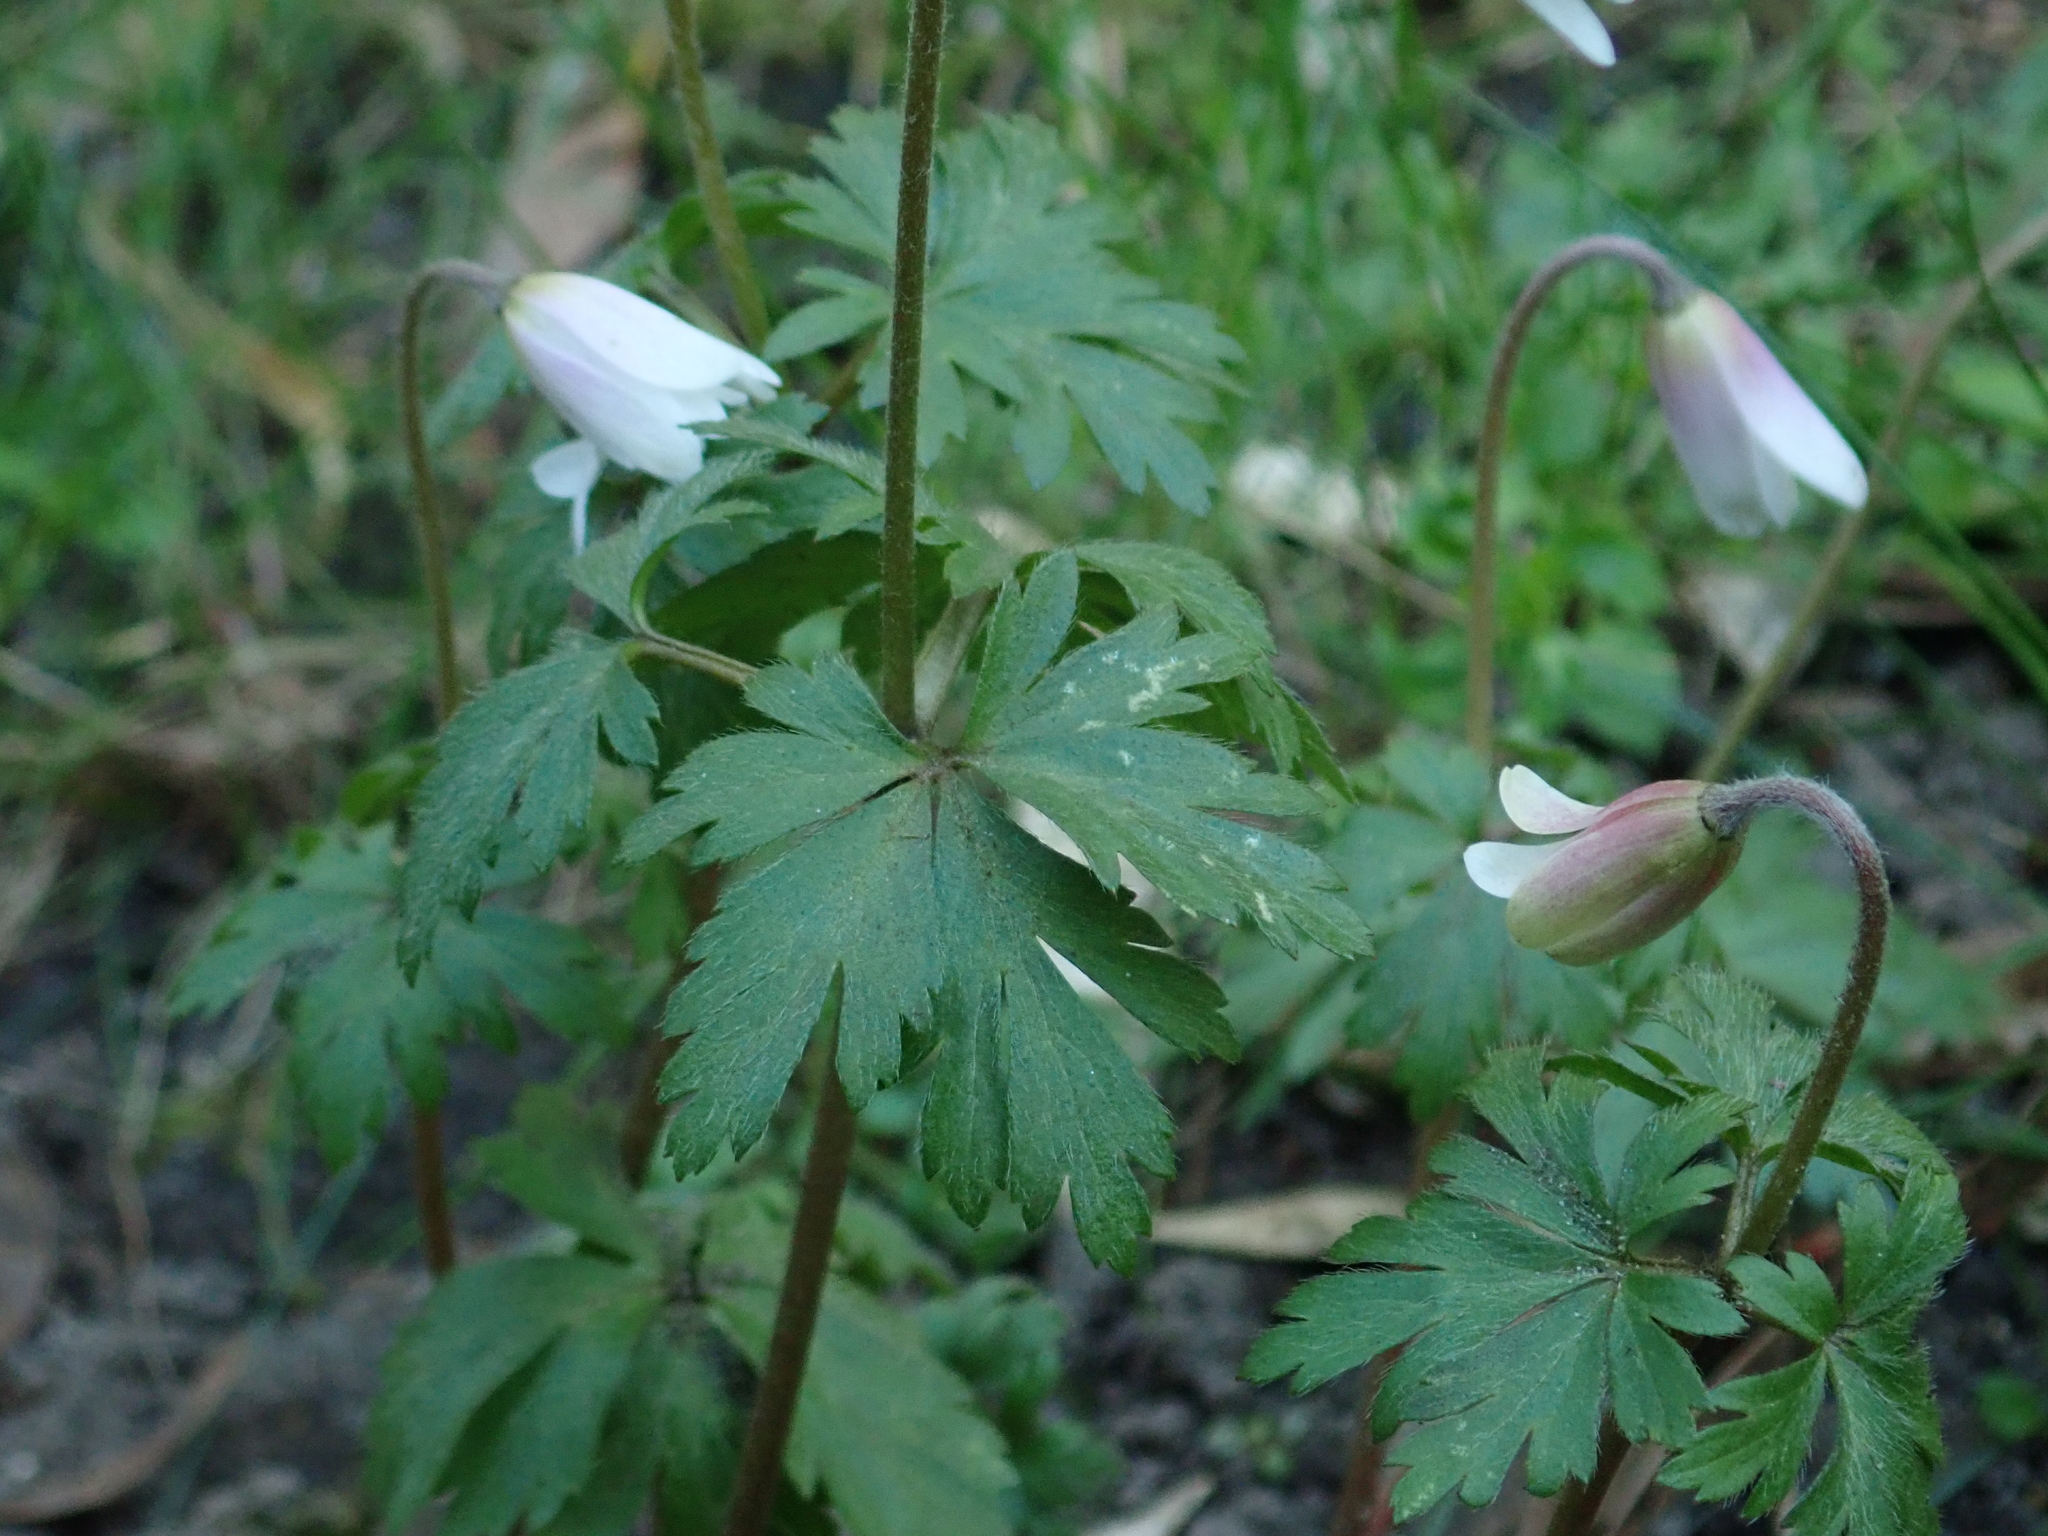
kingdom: Plantae
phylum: Tracheophyta
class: Magnoliopsida
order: Ranunculales
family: Ranunculaceae
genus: Anemone
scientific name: Anemone nemorosa
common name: Wood anemone
